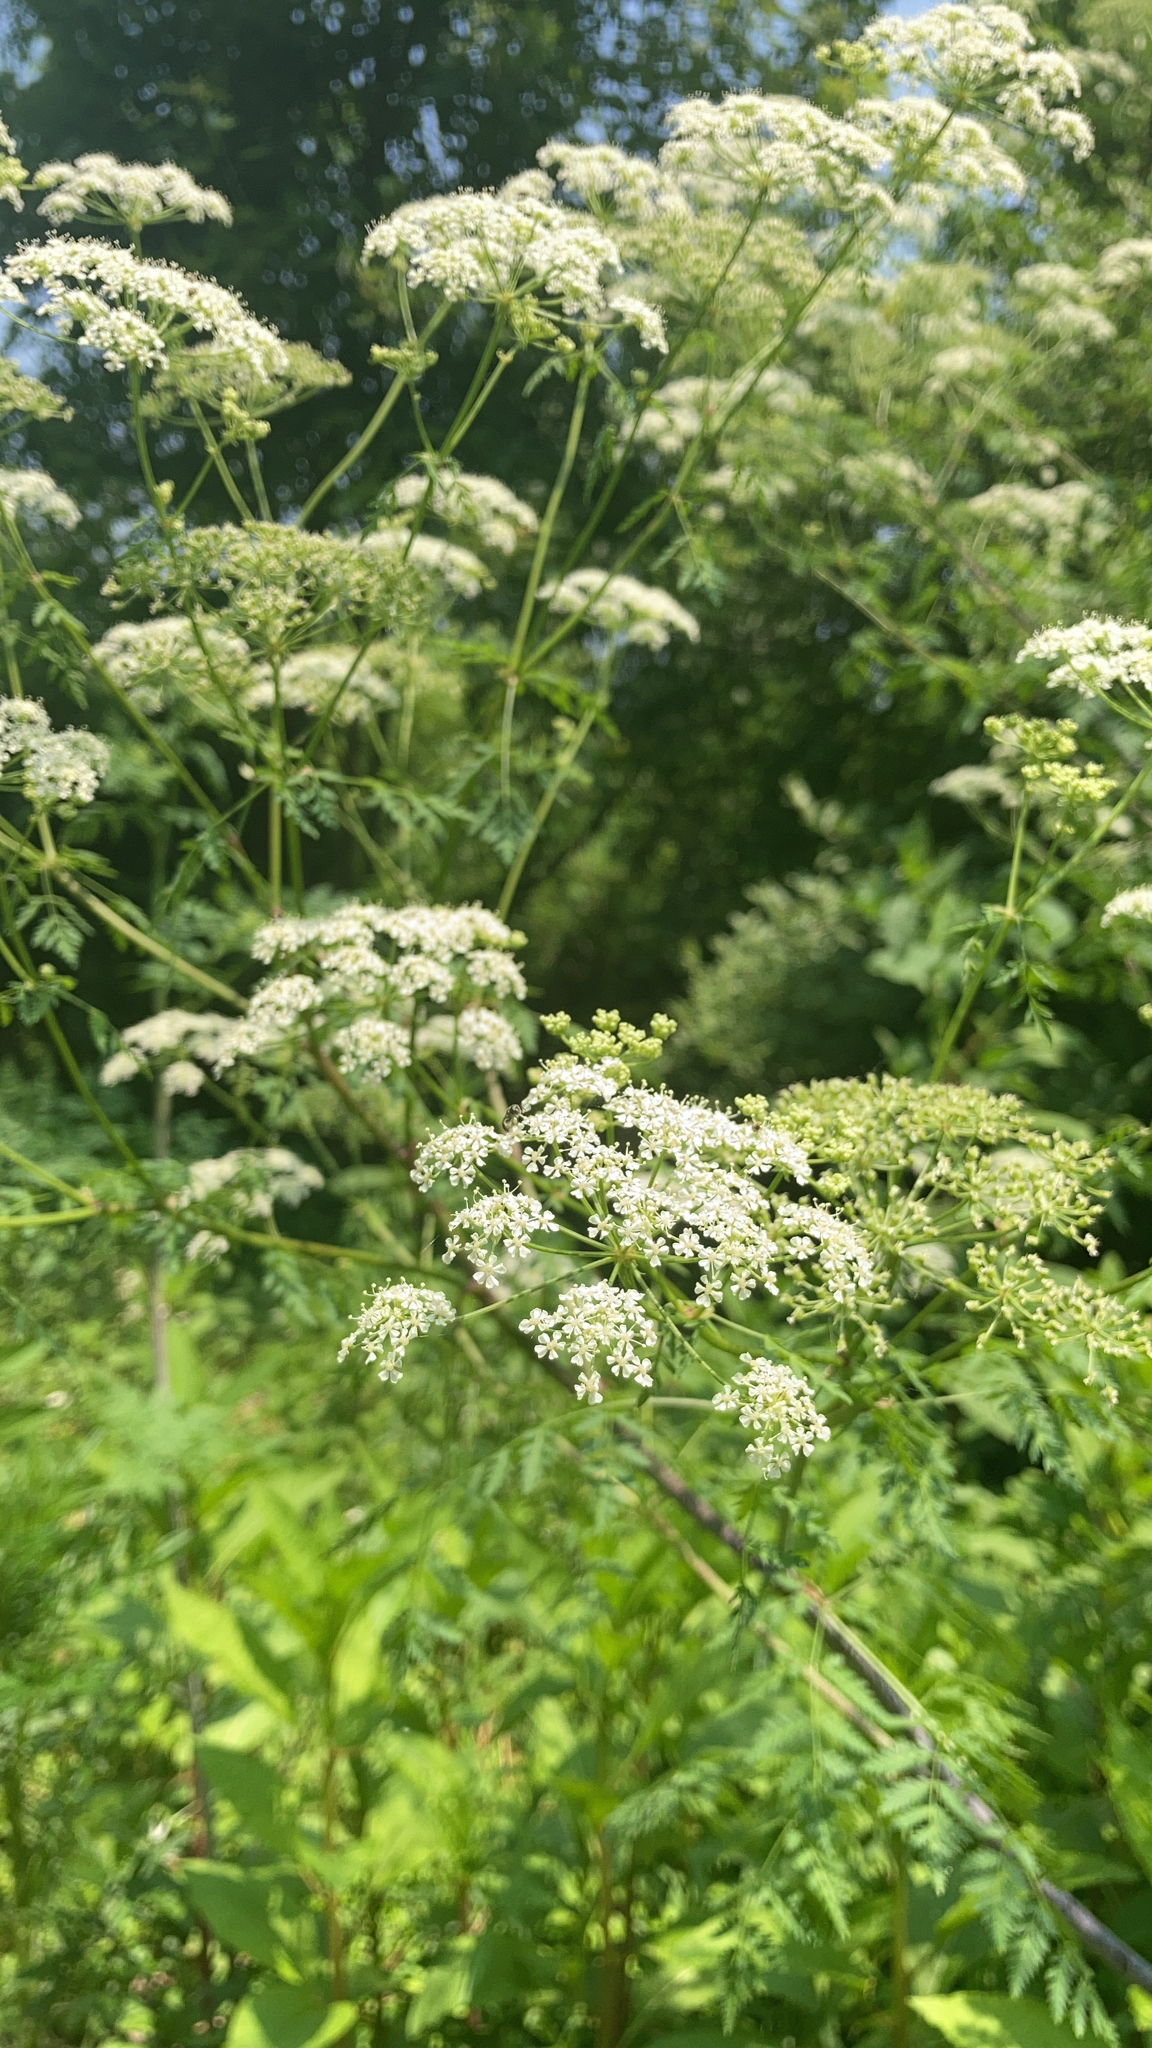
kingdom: Plantae
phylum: Tracheophyta
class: Magnoliopsida
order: Apiales
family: Apiaceae
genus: Conium
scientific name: Conium maculatum
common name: Hemlock
